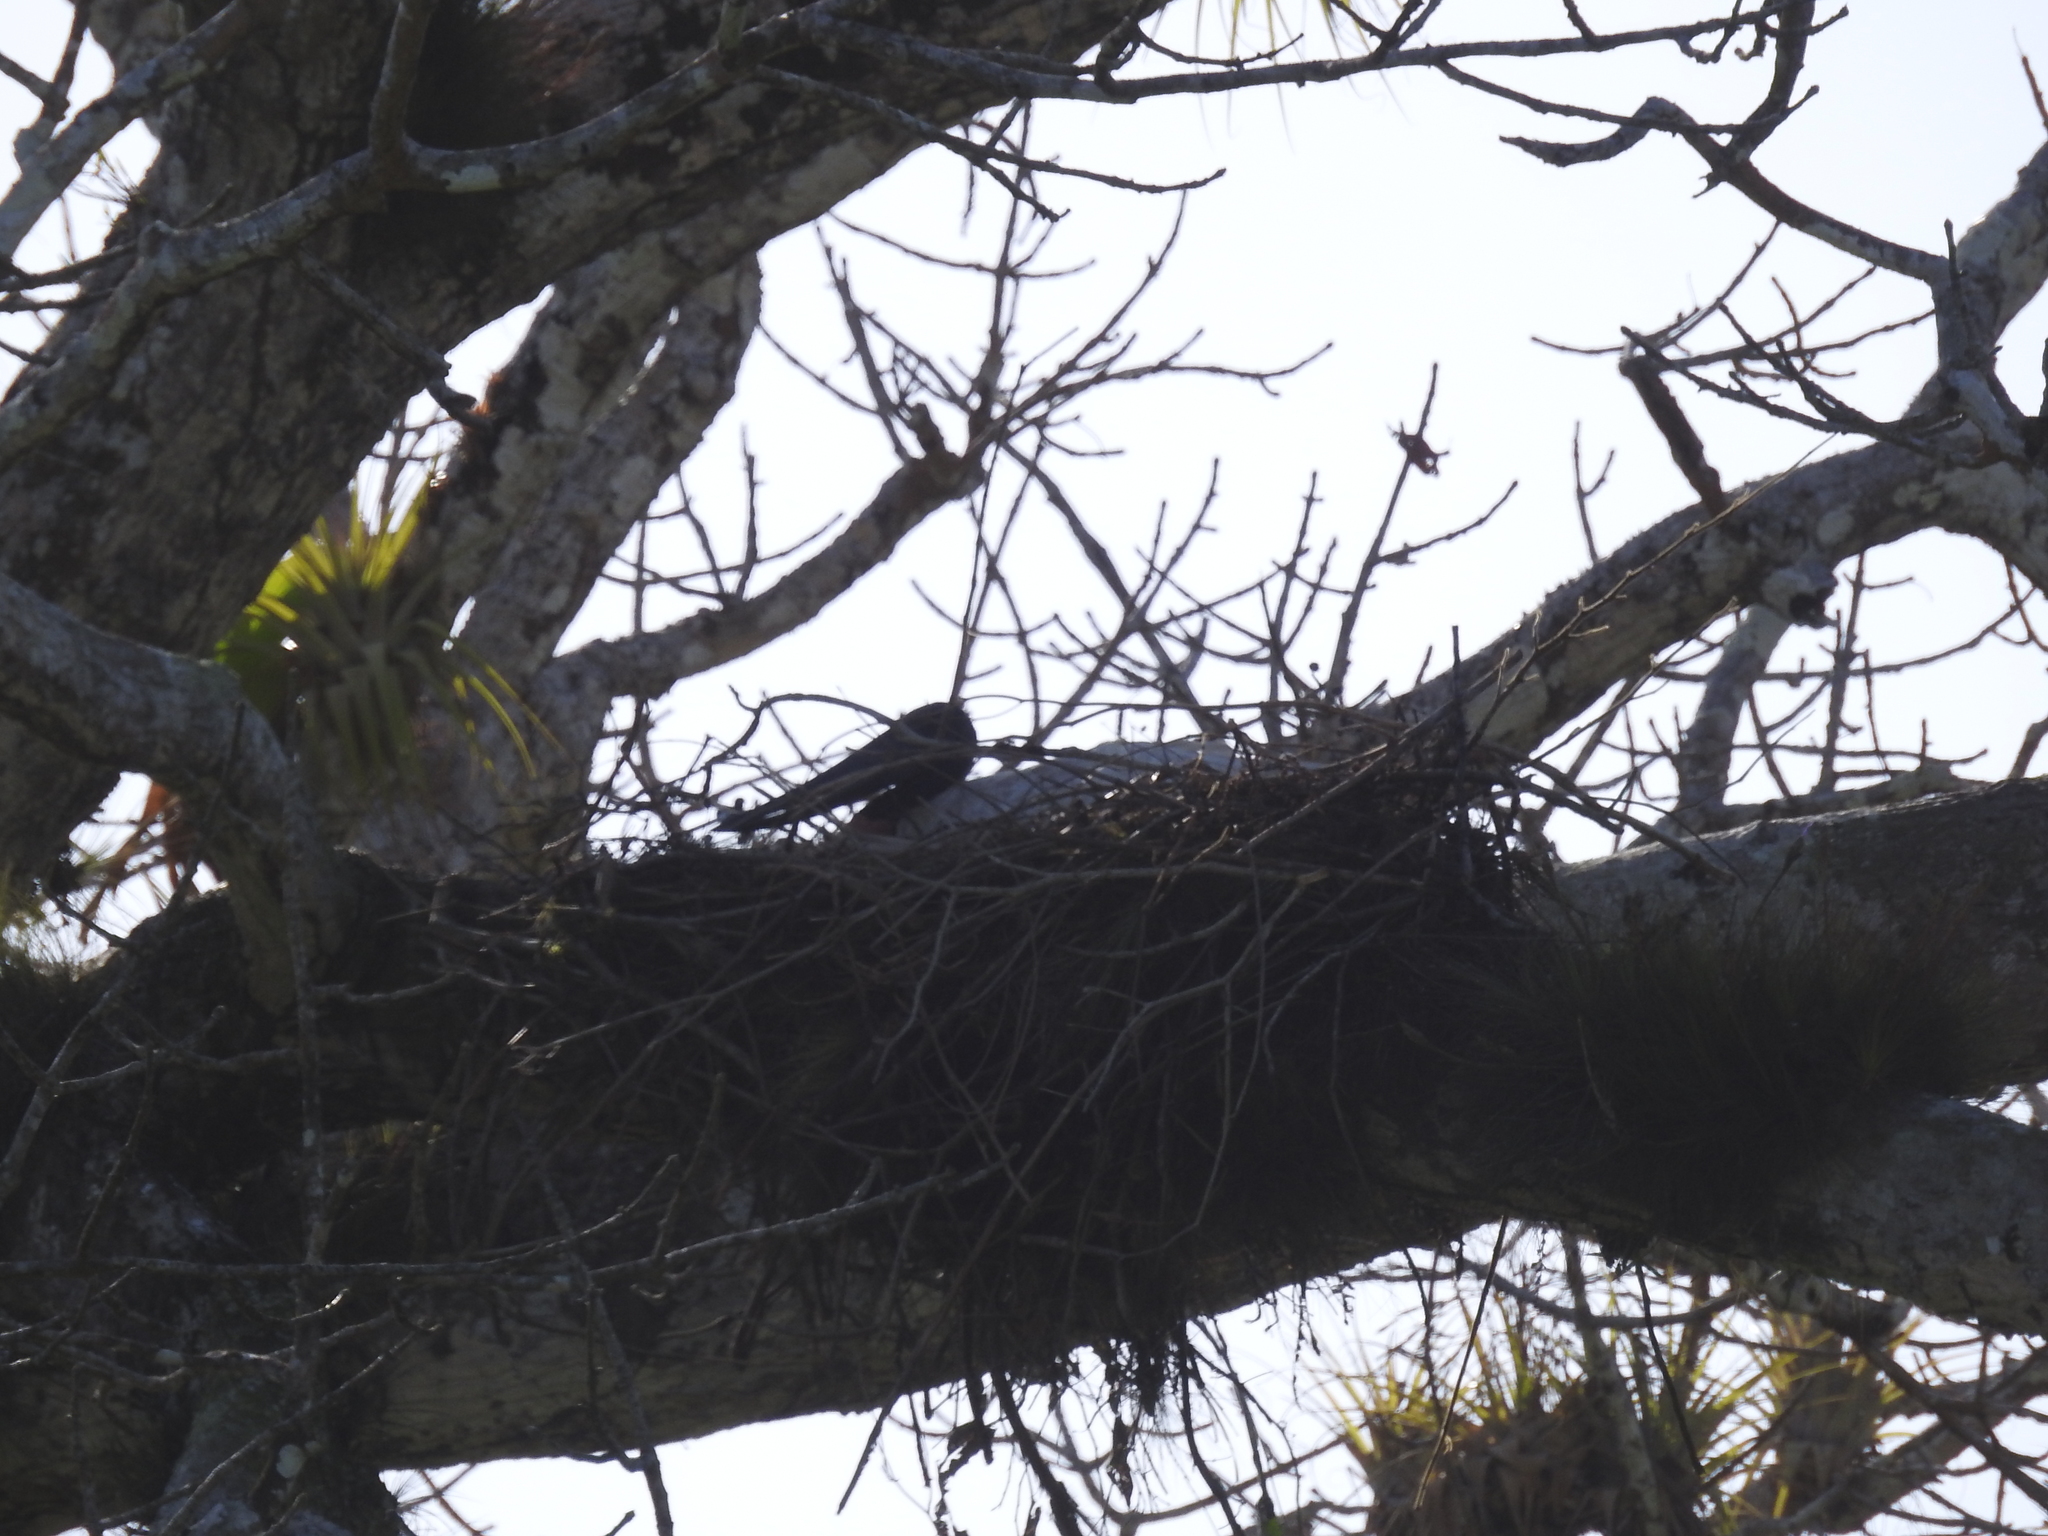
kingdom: Animalia
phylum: Chordata
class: Aves
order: Ciconiiformes
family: Ciconiidae
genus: Jabiru
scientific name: Jabiru mycteria
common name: Jabiru
